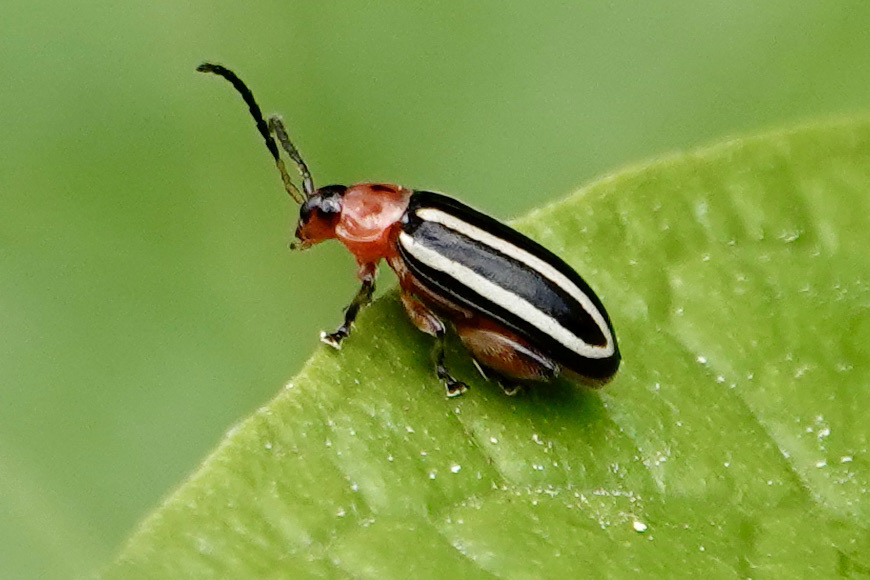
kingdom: Animalia
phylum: Arthropoda
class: Insecta
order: Coleoptera
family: Chrysomelidae
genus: Disonycha
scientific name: Disonycha glabrata
